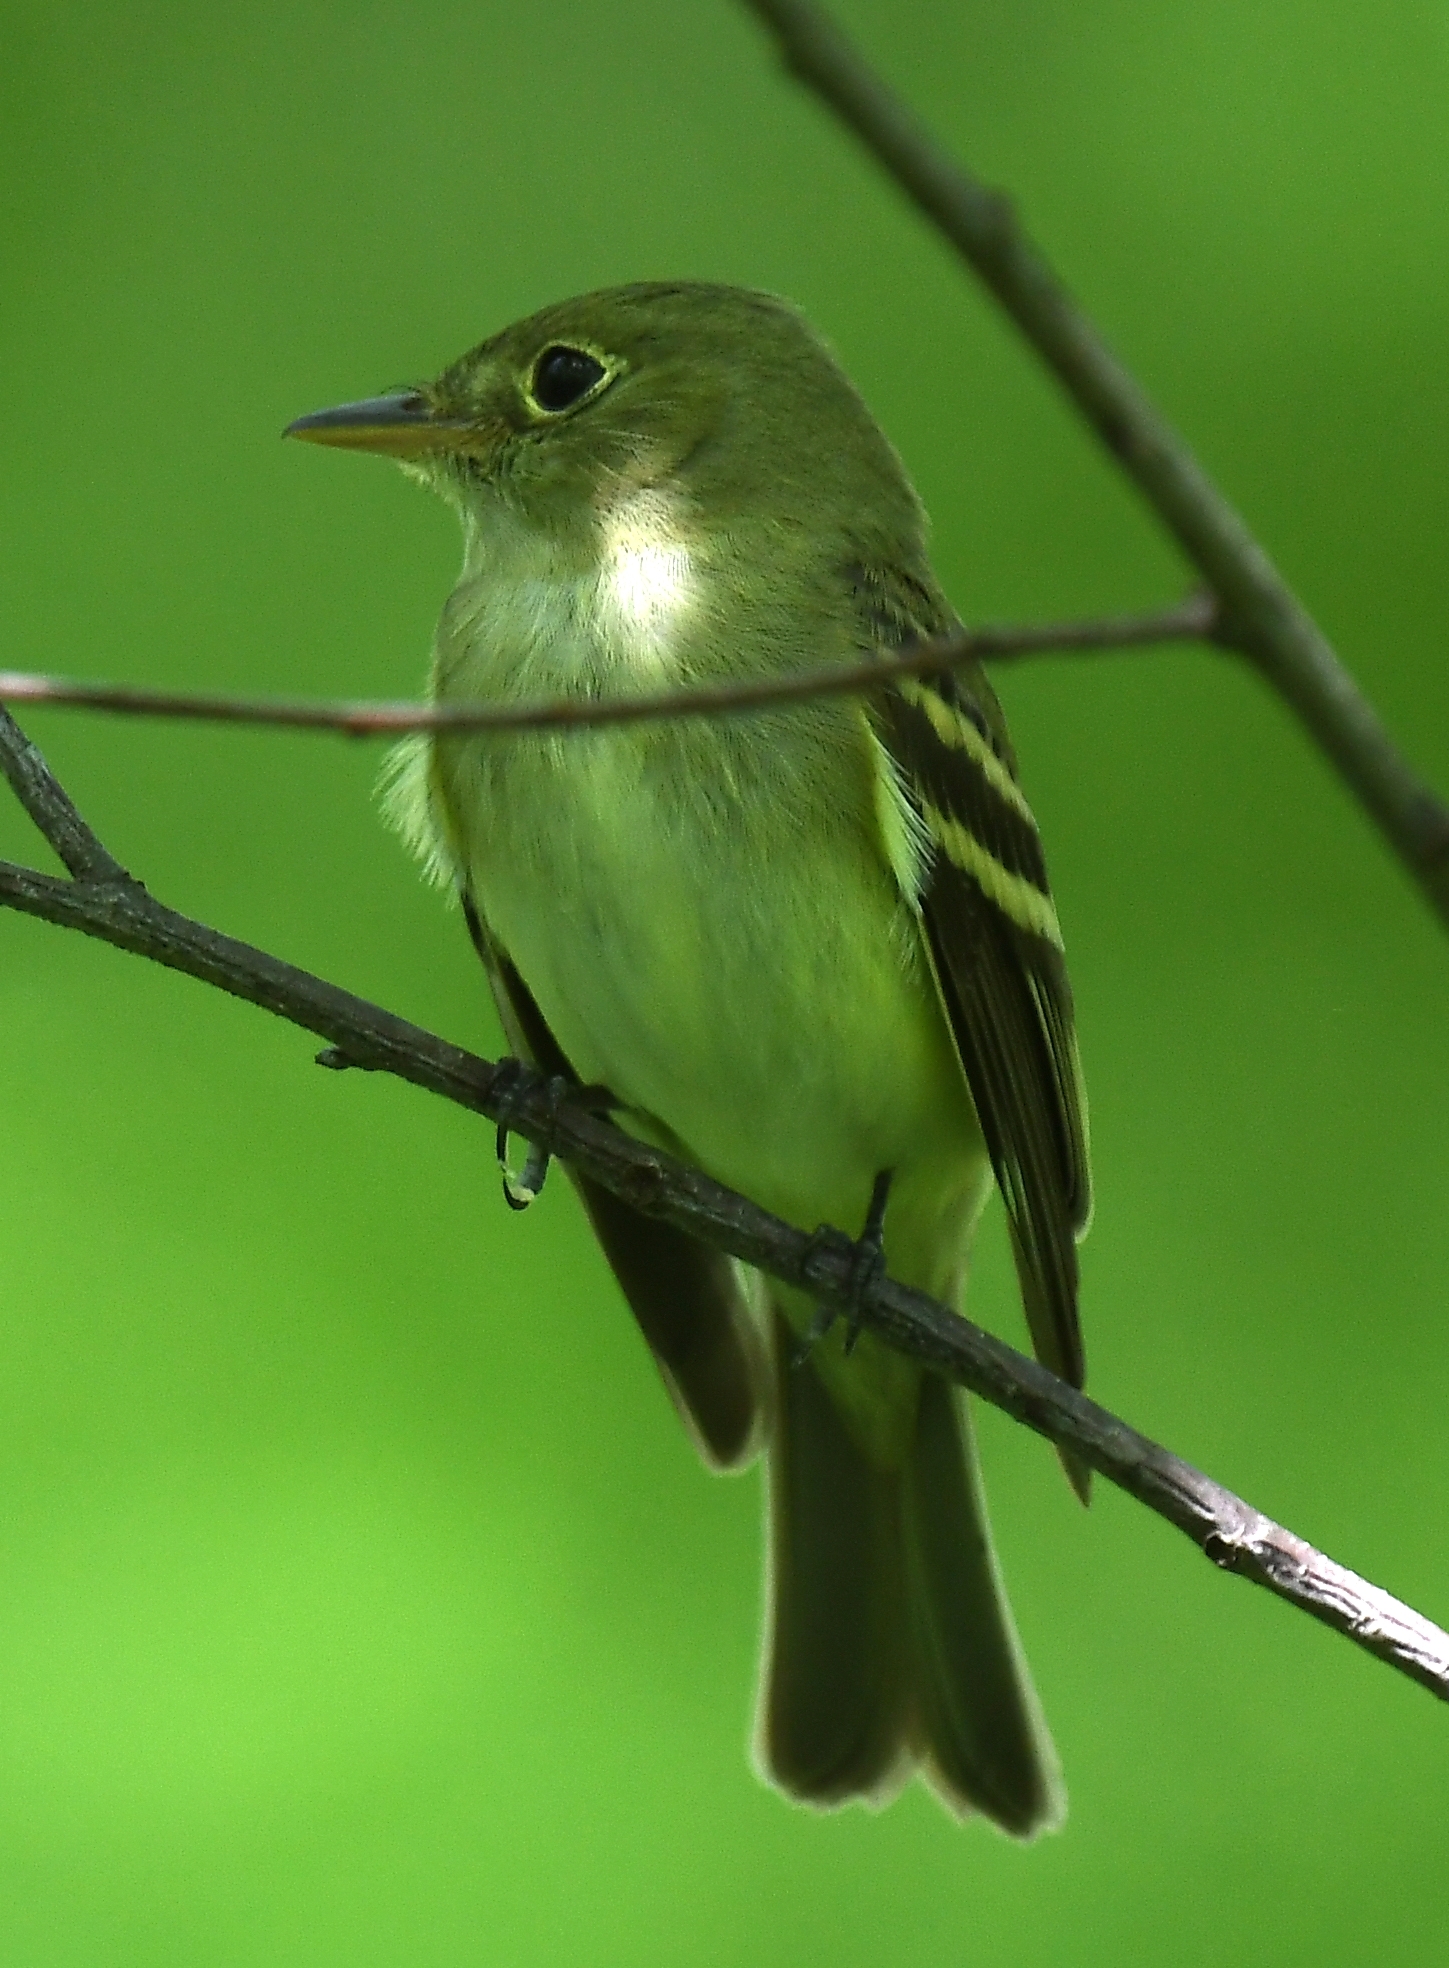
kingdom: Animalia
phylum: Chordata
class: Aves
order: Passeriformes
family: Tyrannidae
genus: Empidonax
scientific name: Empidonax virescens
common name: Acadian flycatcher
